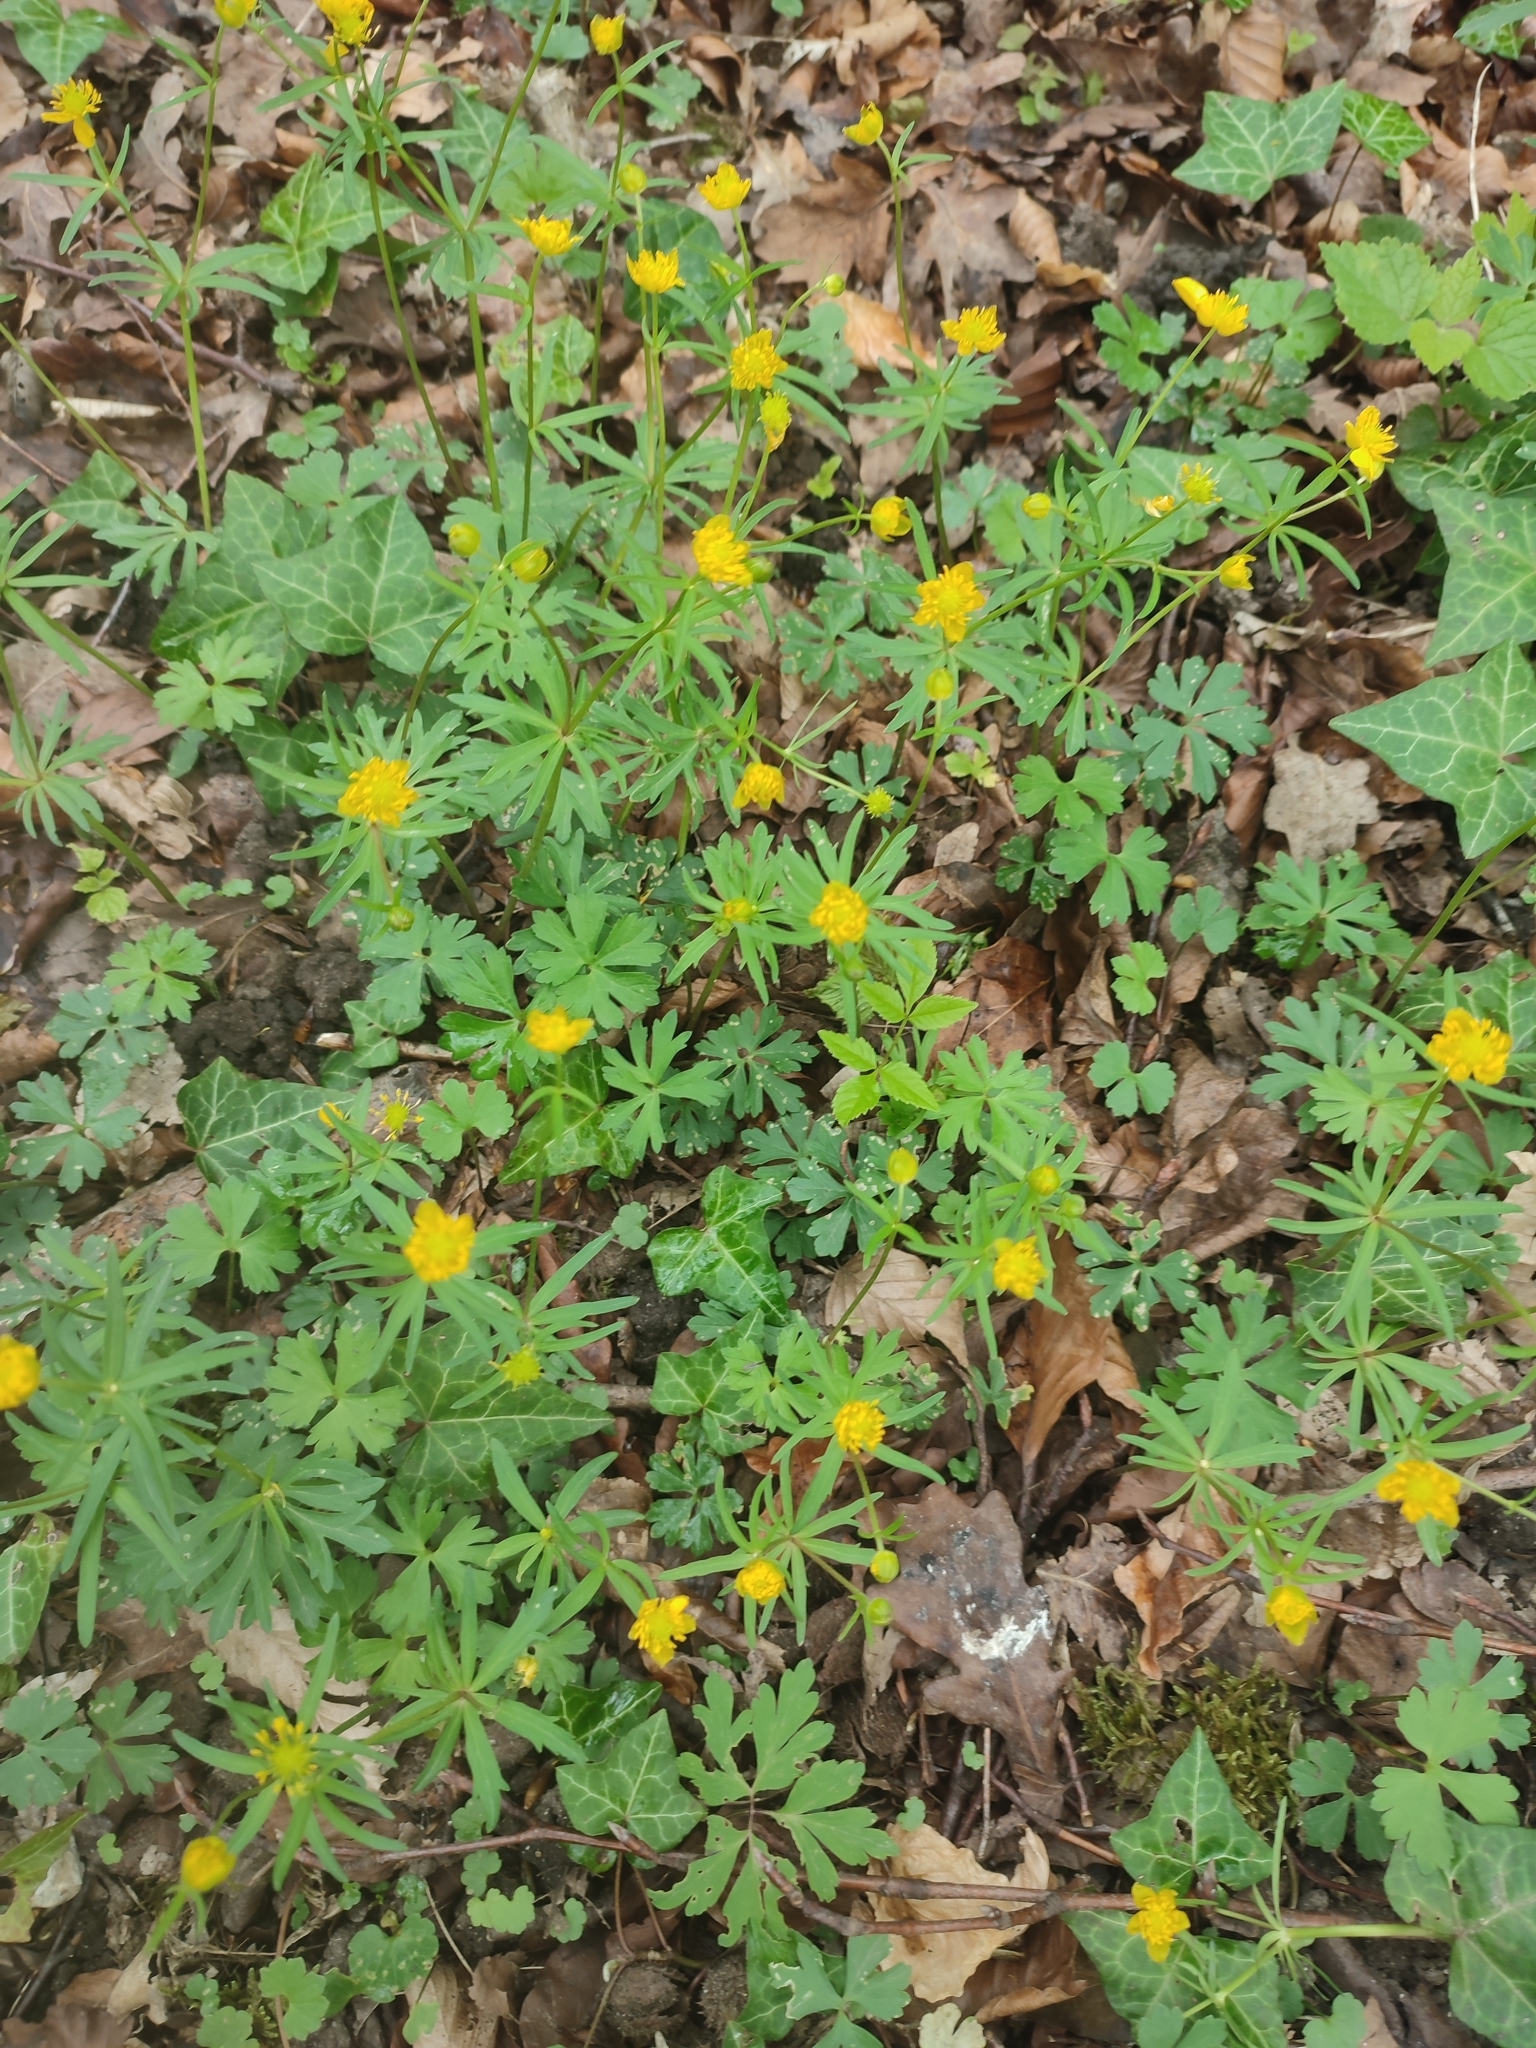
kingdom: Plantae
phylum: Tracheophyta
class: Magnoliopsida
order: Ranunculales
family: Ranunculaceae
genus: Ranunculus
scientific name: Ranunculus auricomus
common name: Goldilocks buttercup
